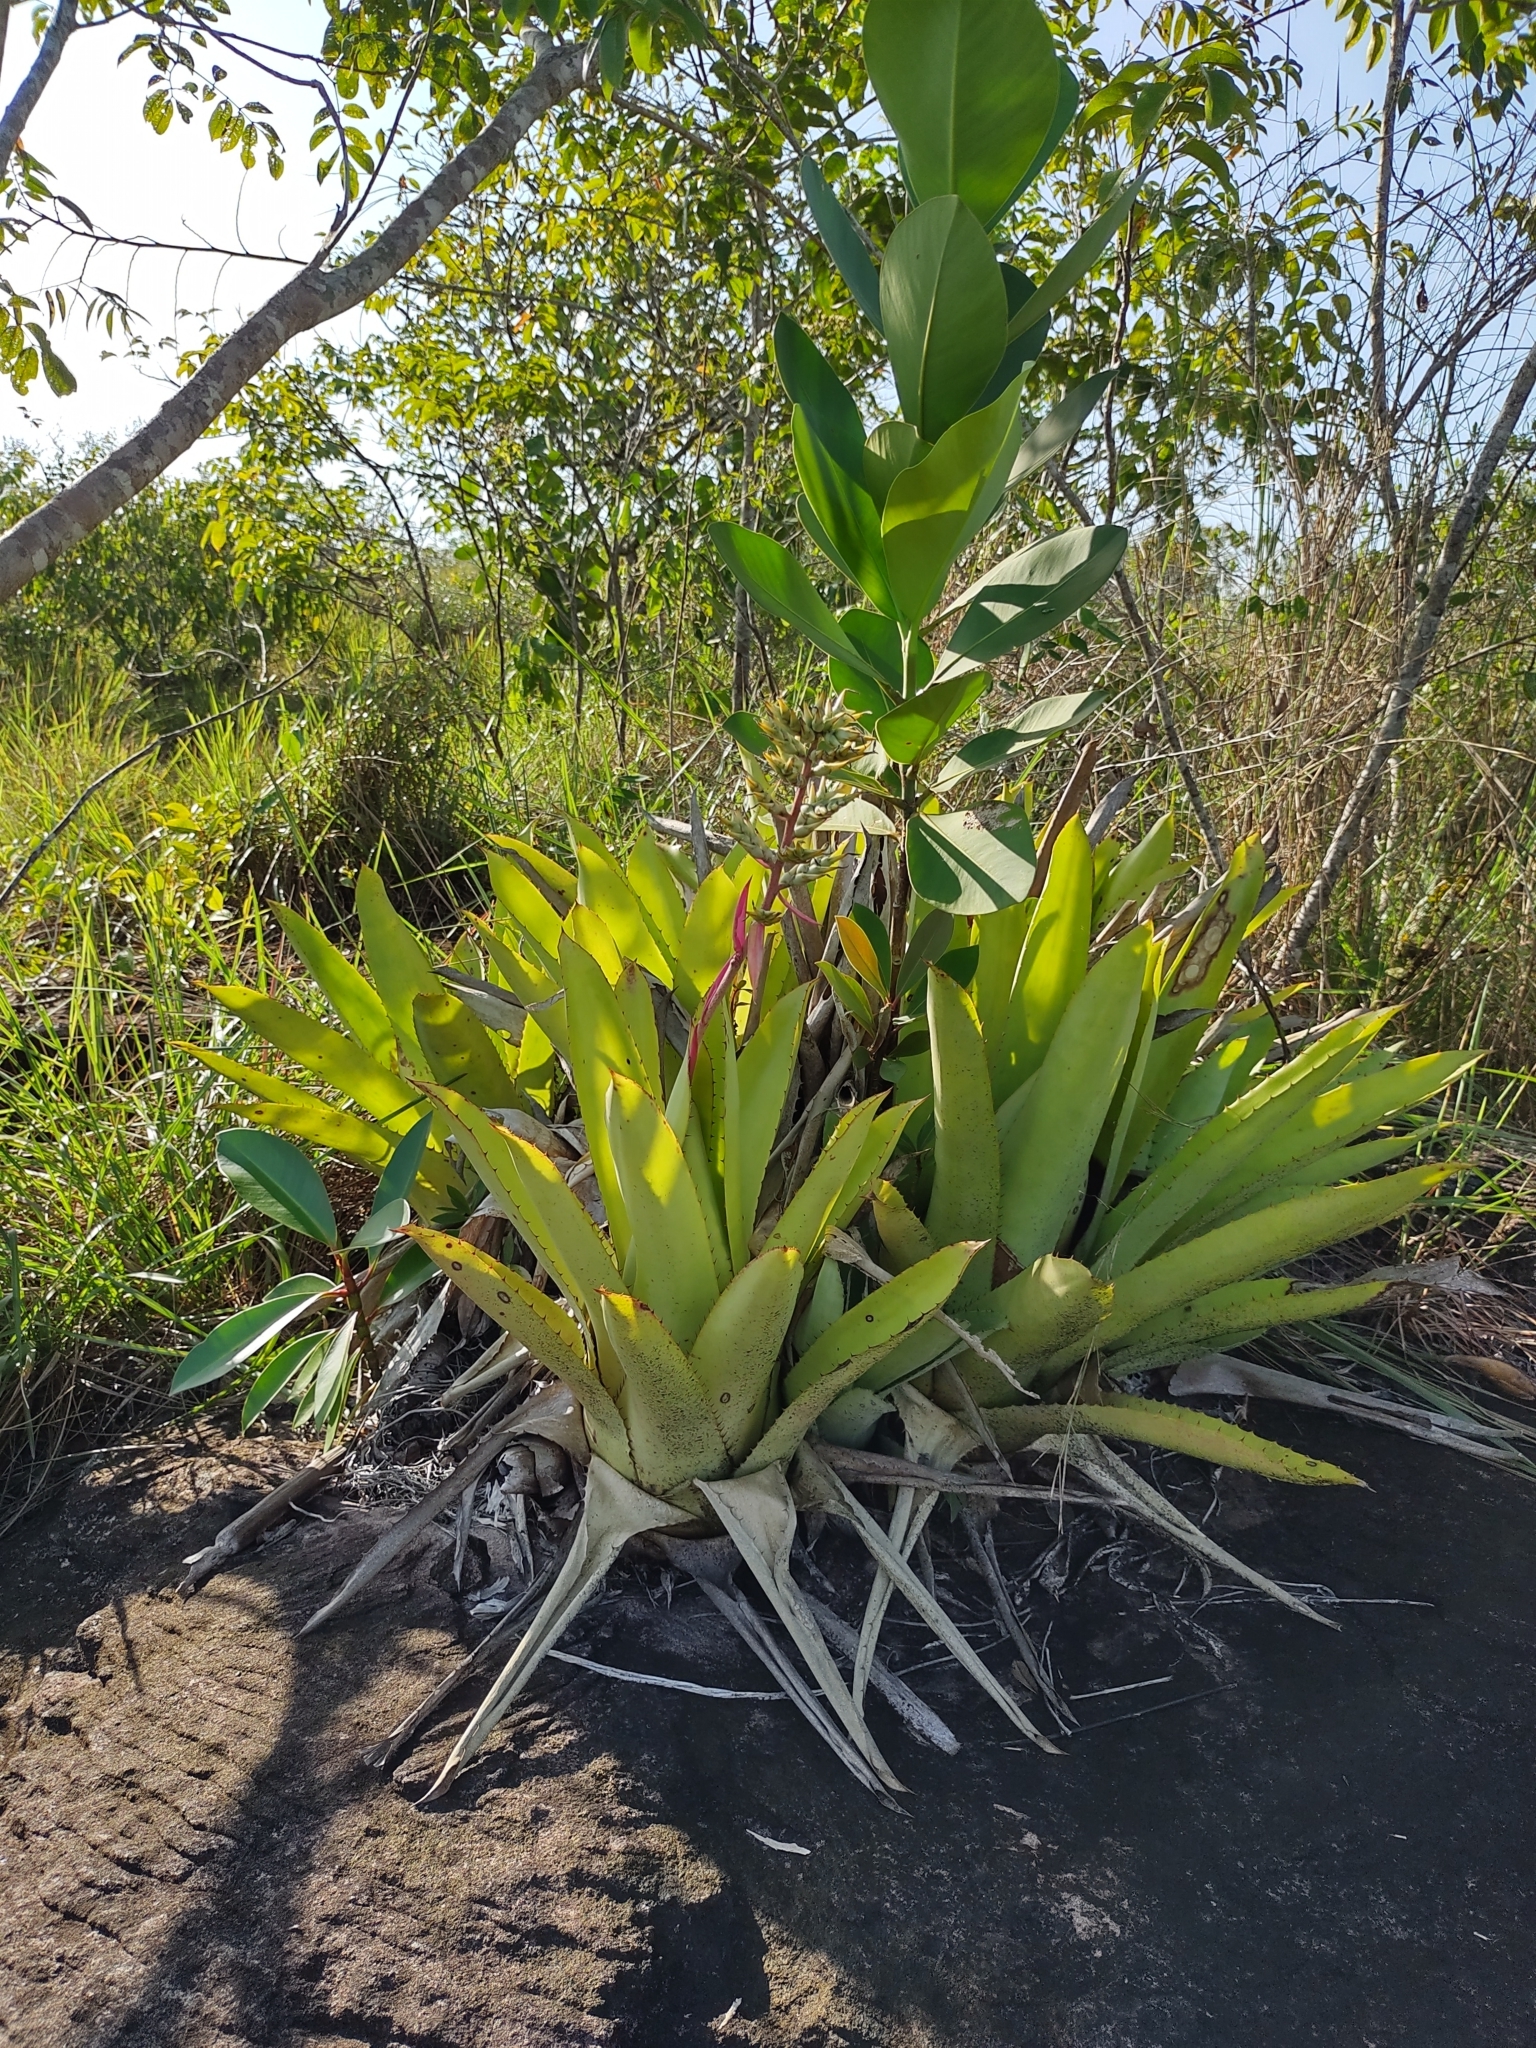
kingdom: Plantae
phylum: Tracheophyta
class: Liliopsida
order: Poales
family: Bromeliaceae
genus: Aechmea
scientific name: Aechmea stenosepala
